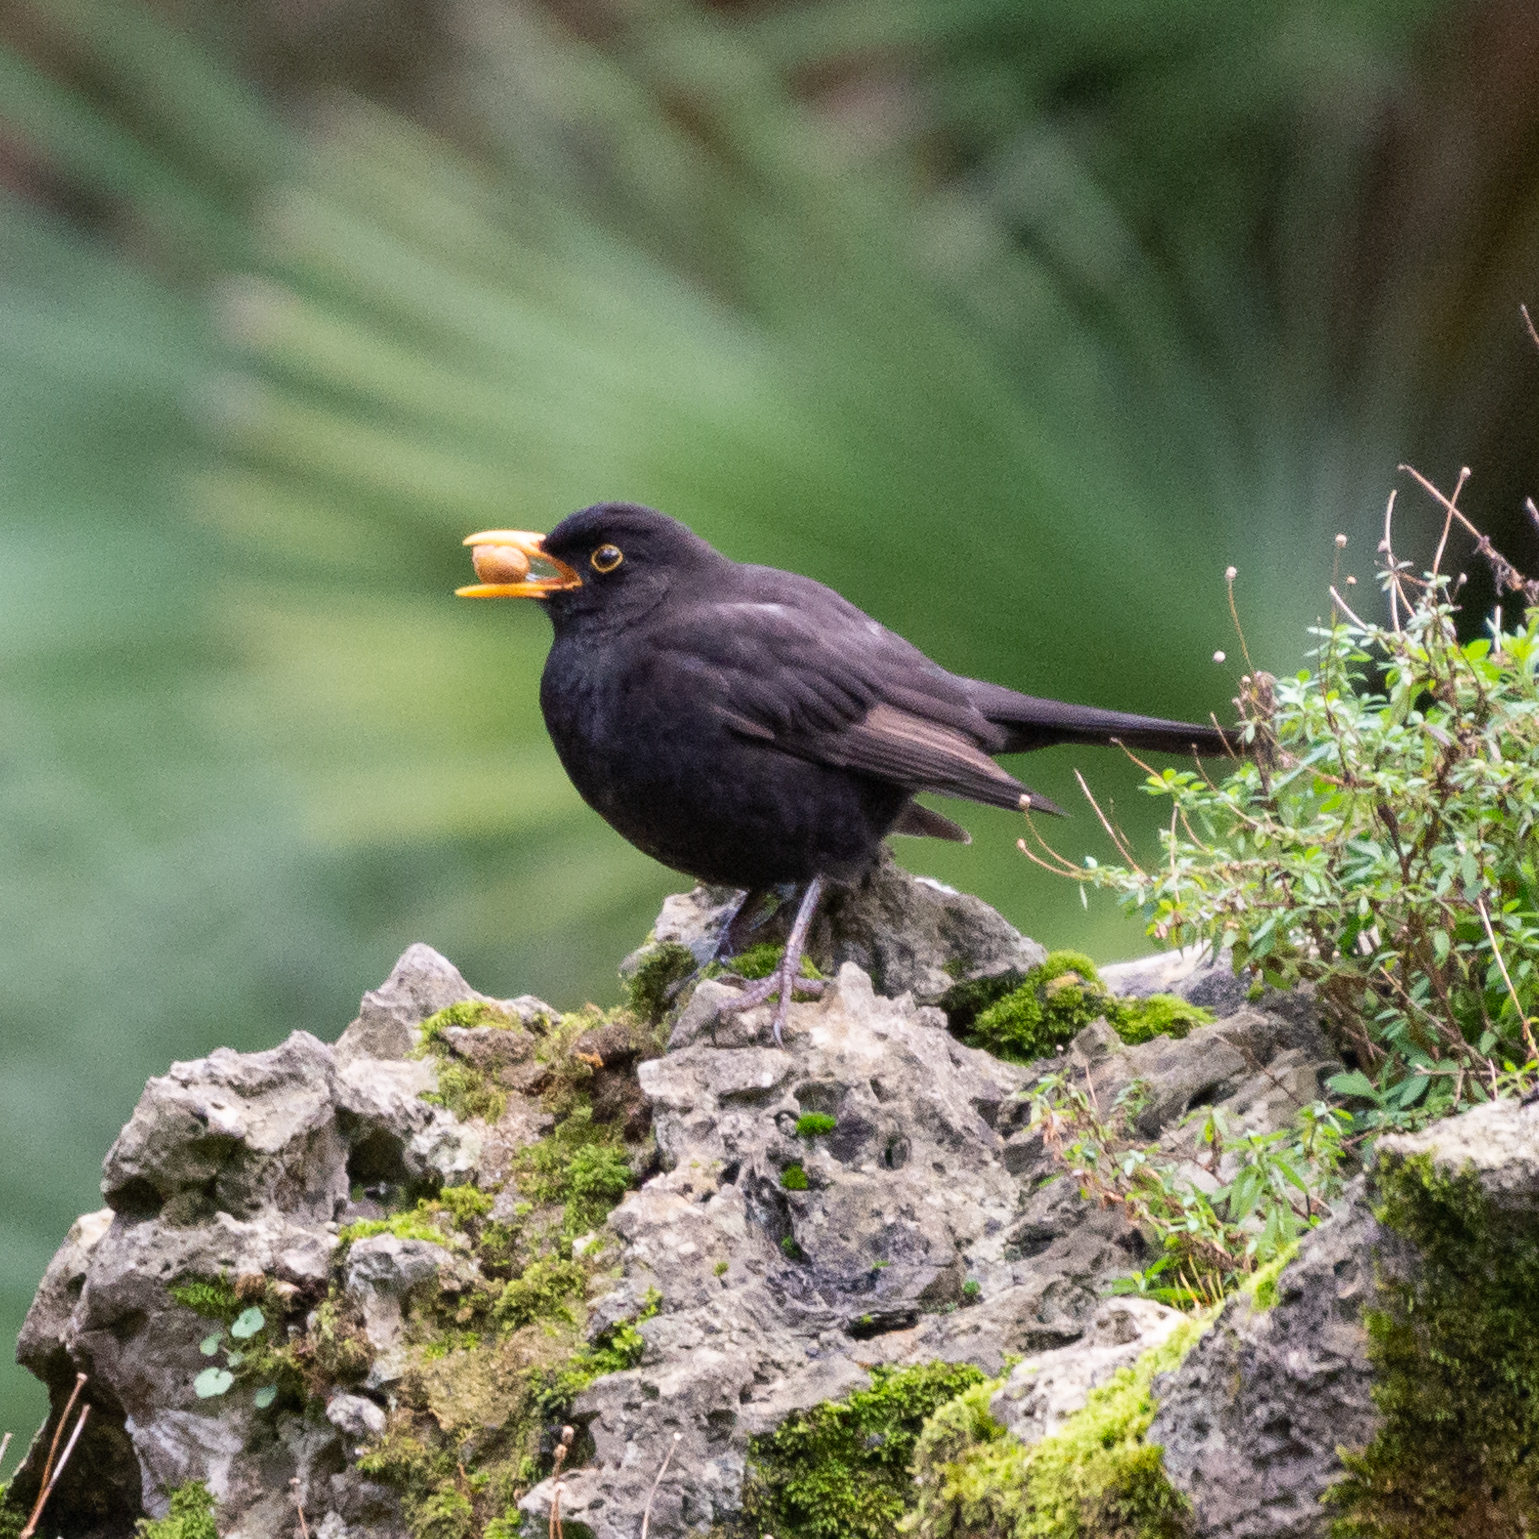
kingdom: Animalia
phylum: Chordata
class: Aves
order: Passeriformes
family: Turdidae
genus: Turdus
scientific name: Turdus merula
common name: Common blackbird
